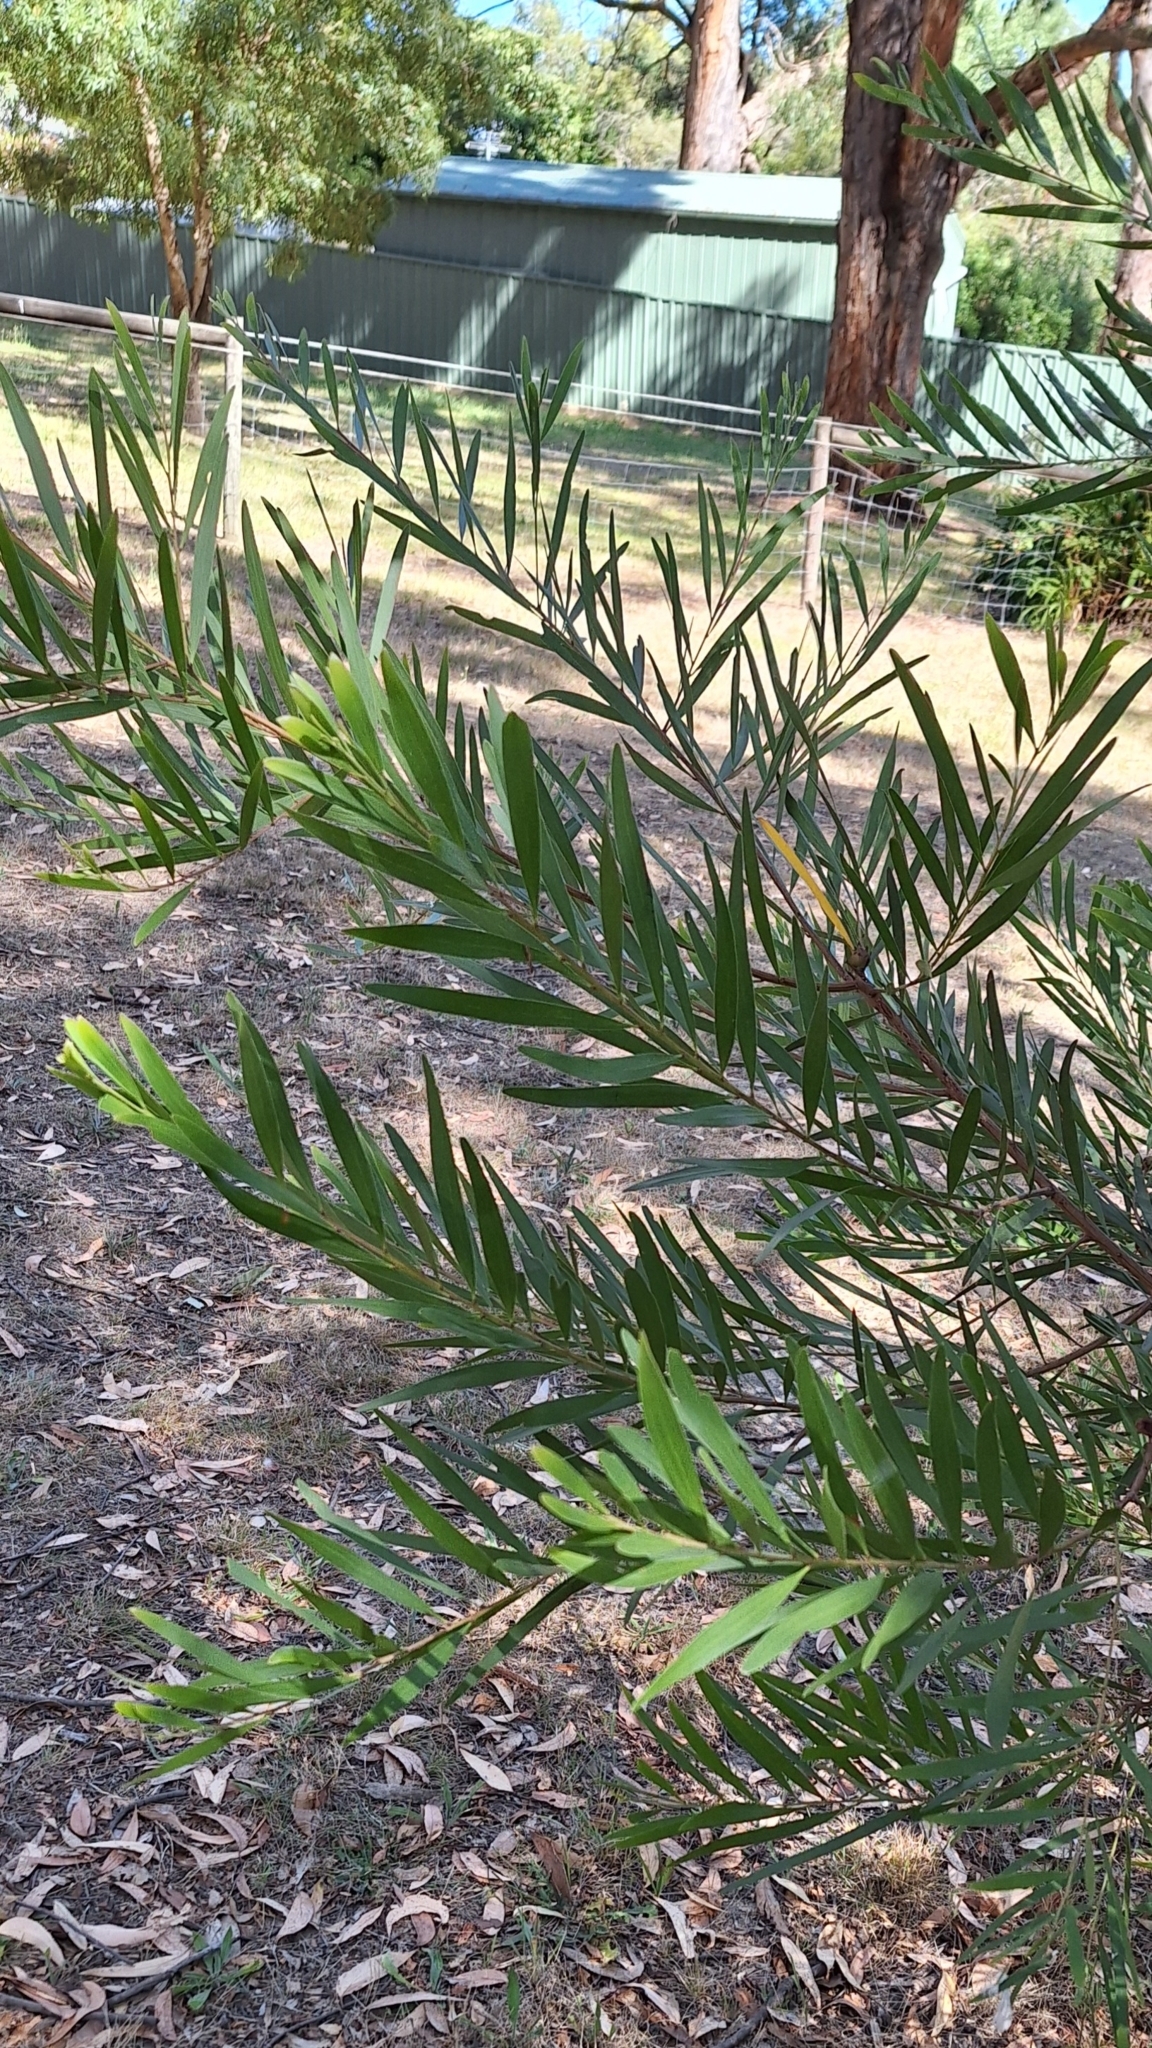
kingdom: Plantae
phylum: Tracheophyta
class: Magnoliopsida
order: Fabales
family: Fabaceae
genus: Acacia
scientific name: Acacia longifolia
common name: Sydney golden wattle
